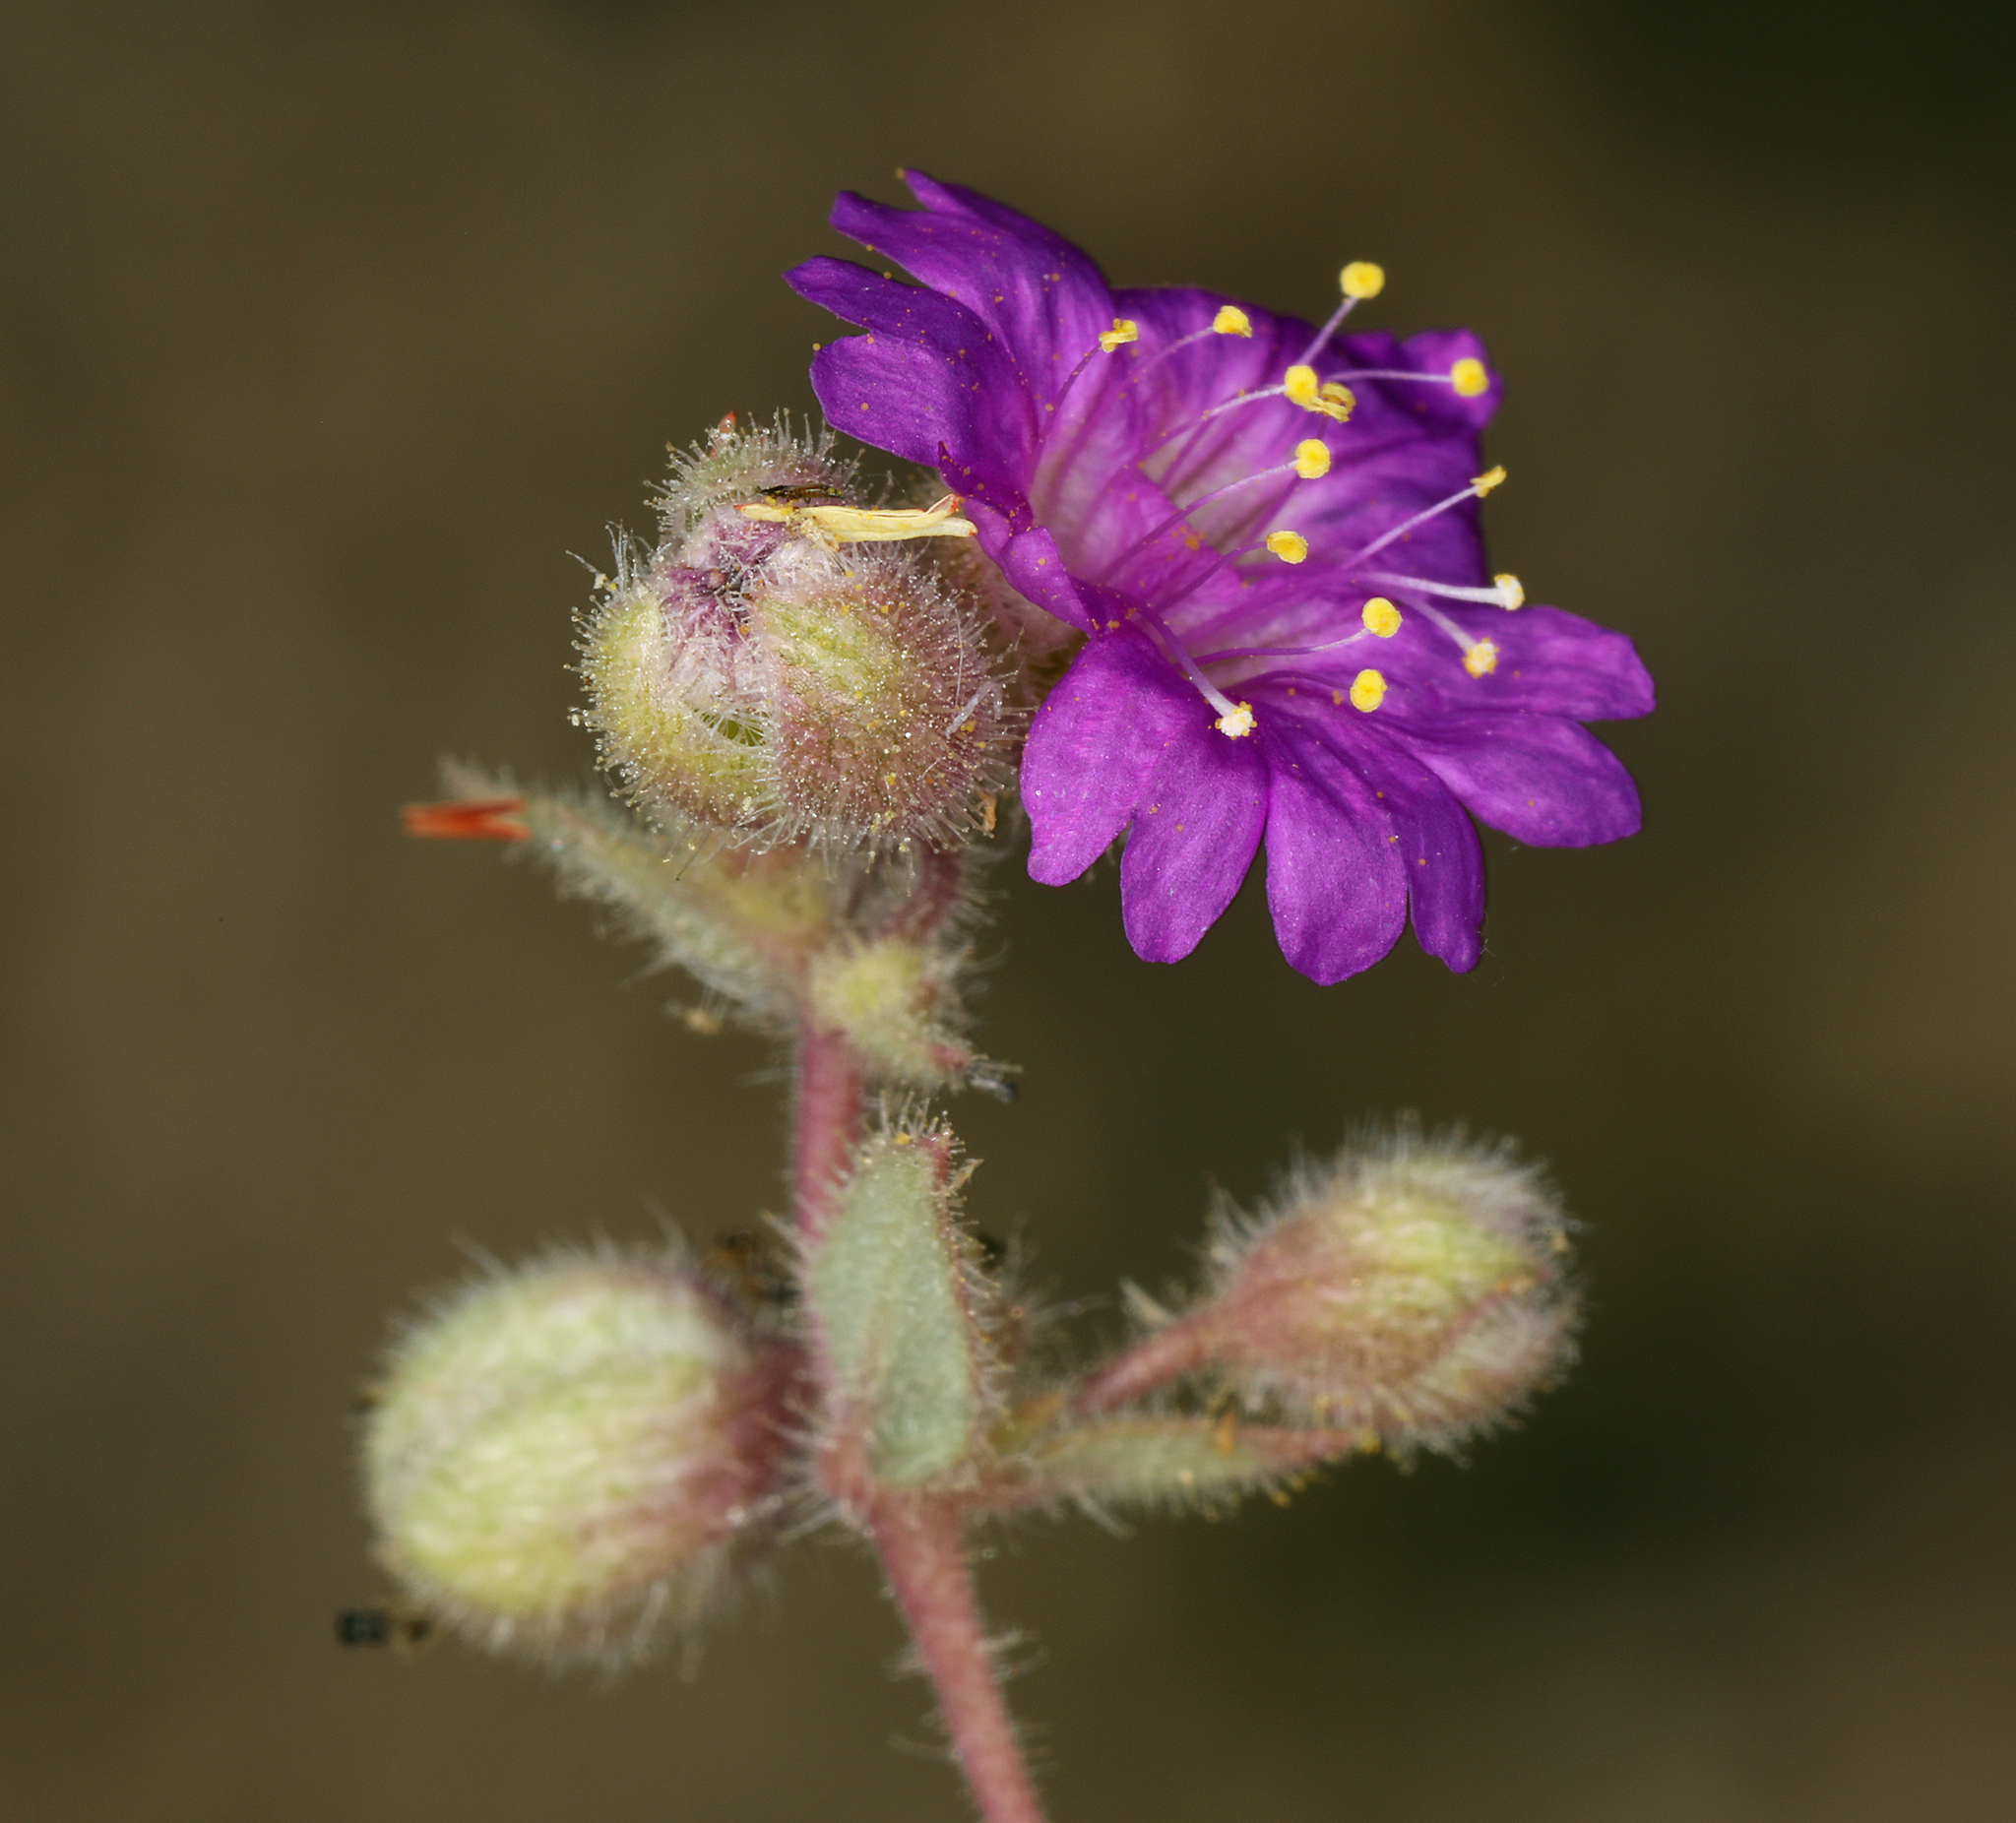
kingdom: Plantae
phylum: Tracheophyta
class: Magnoliopsida
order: Caryophyllales
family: Nyctaginaceae
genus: Allionia
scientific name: Allionia incarnata
